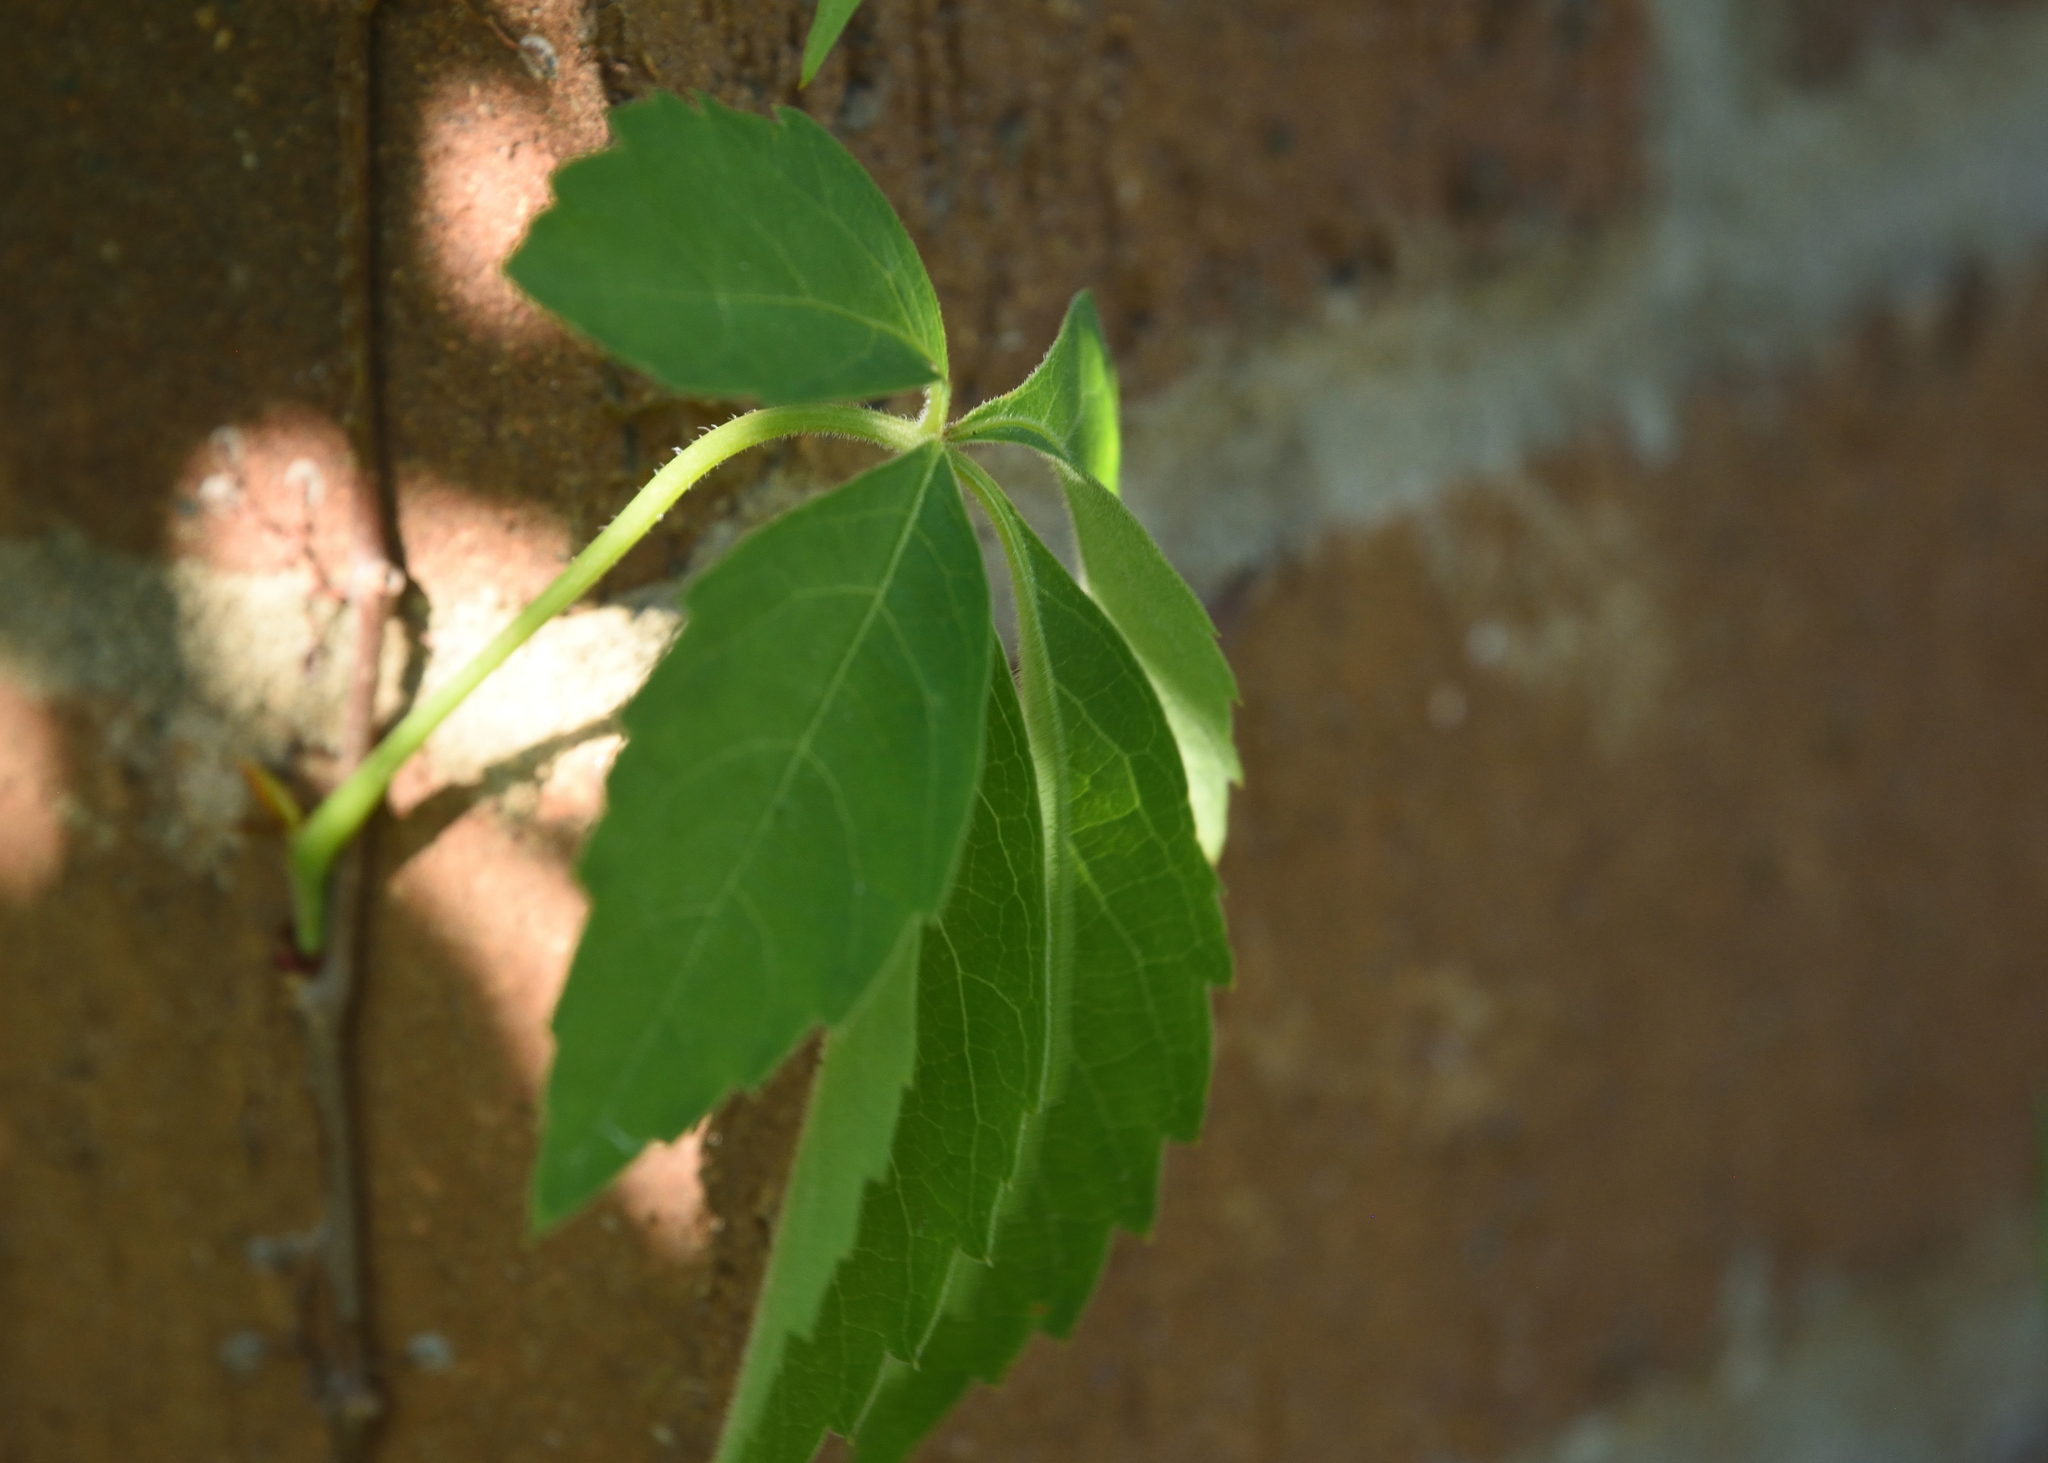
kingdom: Plantae
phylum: Tracheophyta
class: Magnoliopsida
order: Vitales
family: Vitaceae
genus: Parthenocissus
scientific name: Parthenocissus quinquefolia
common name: Virginia-creeper
